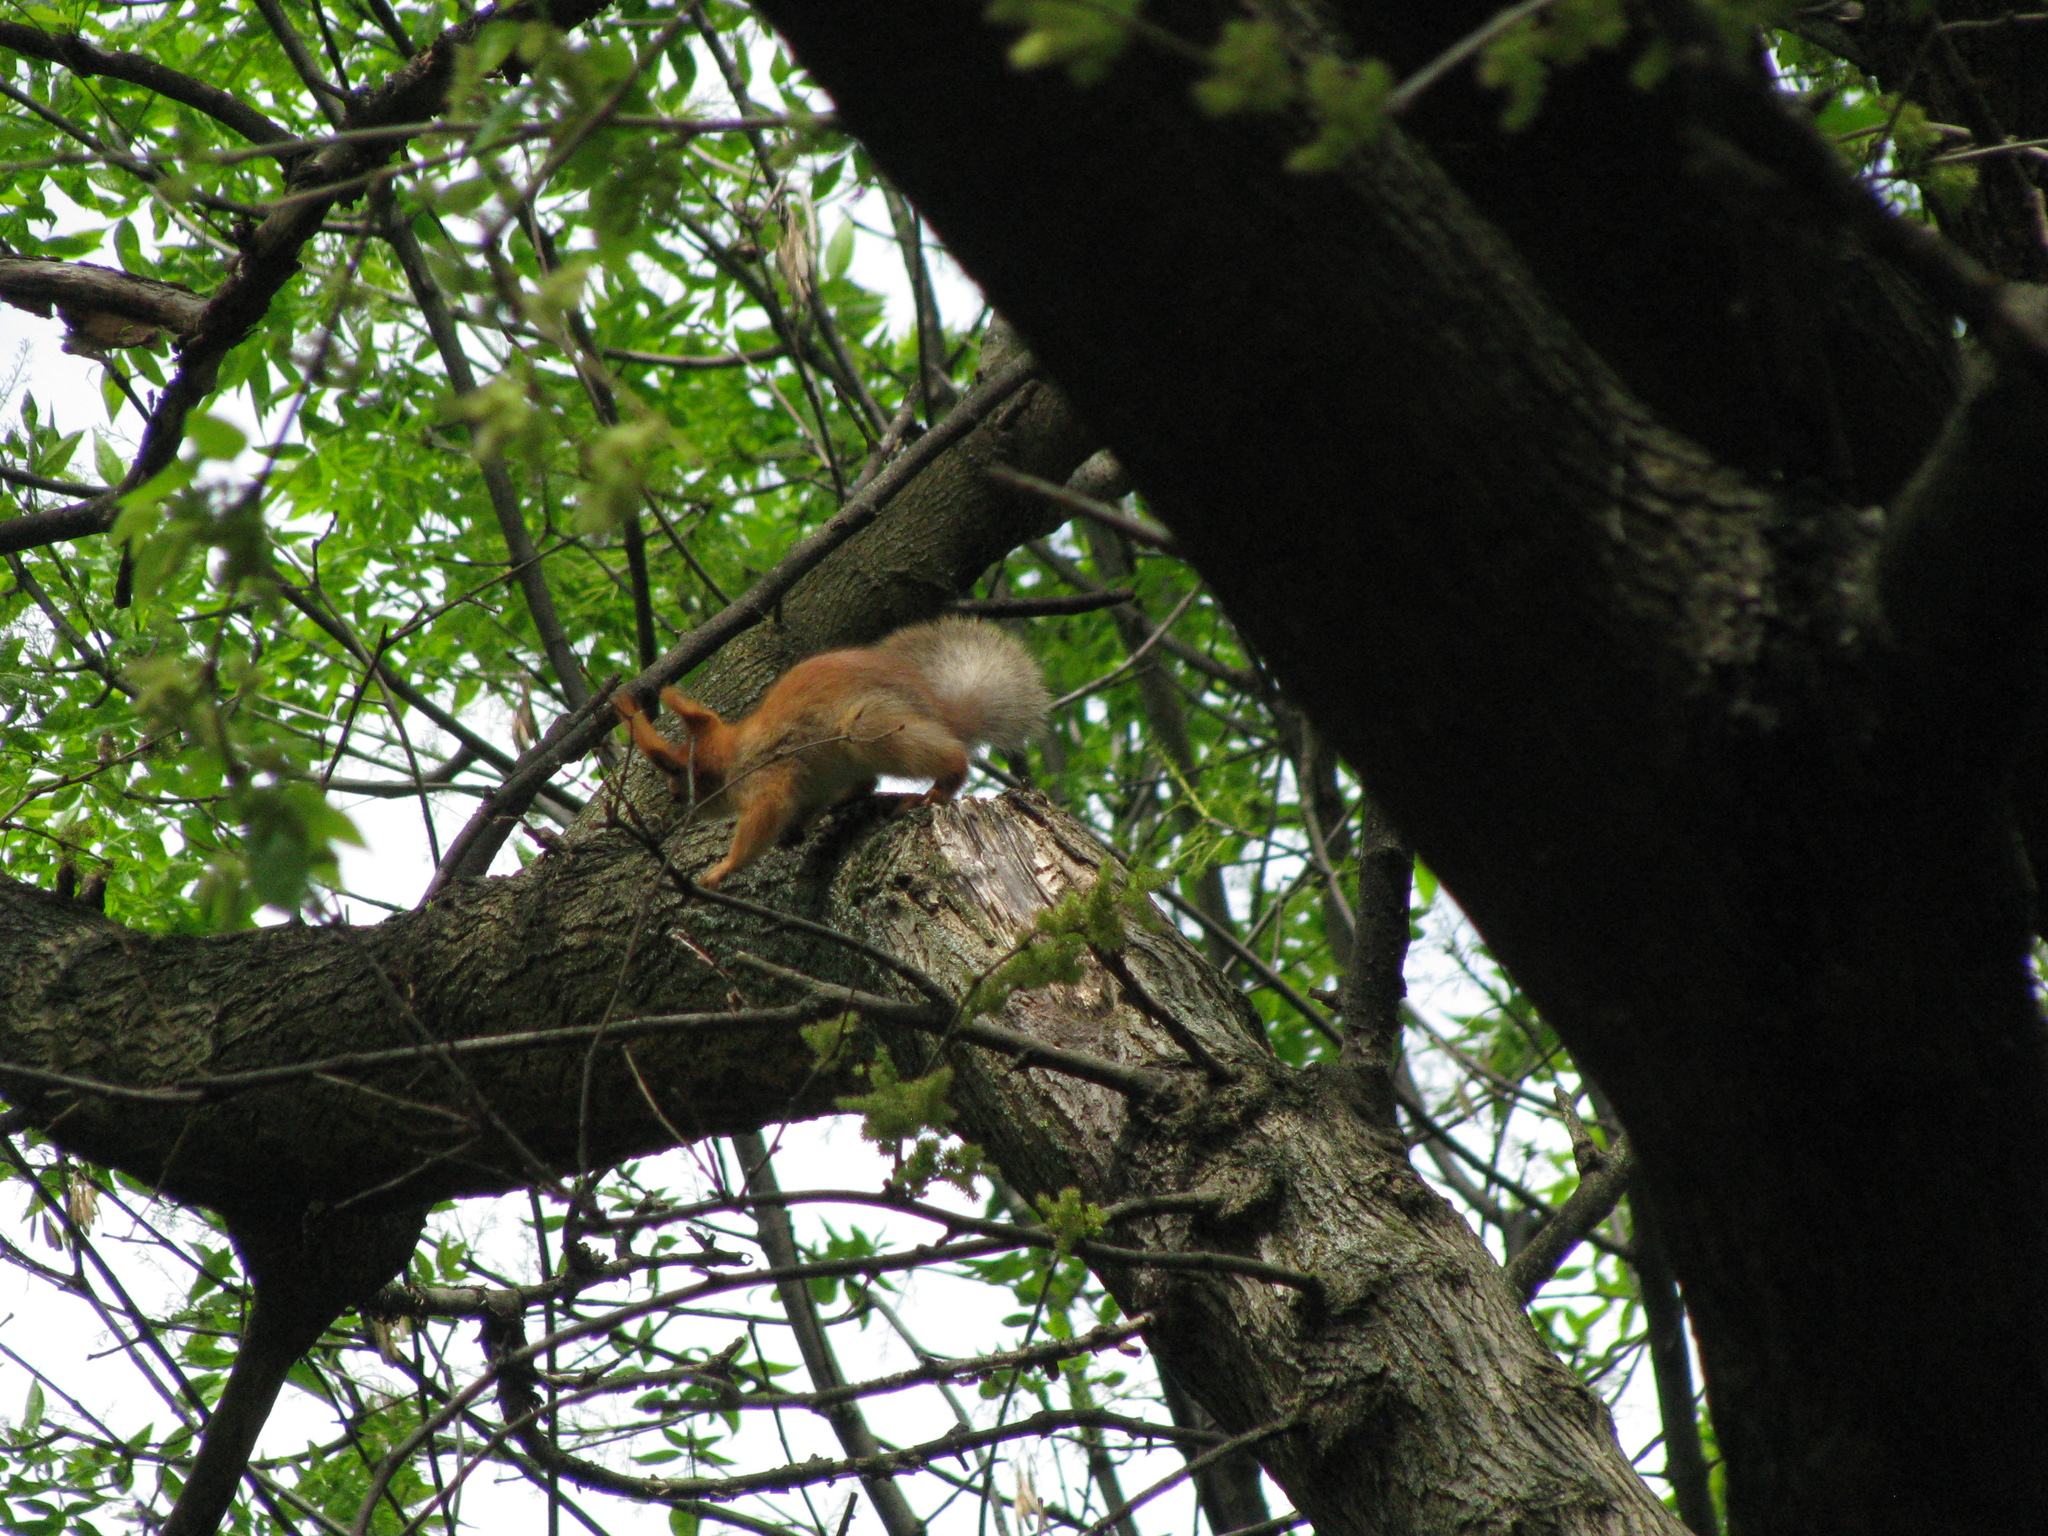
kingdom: Animalia
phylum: Chordata
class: Mammalia
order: Rodentia
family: Sciuridae
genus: Sciurus
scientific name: Sciurus vulgaris
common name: Eurasian red squirrel
